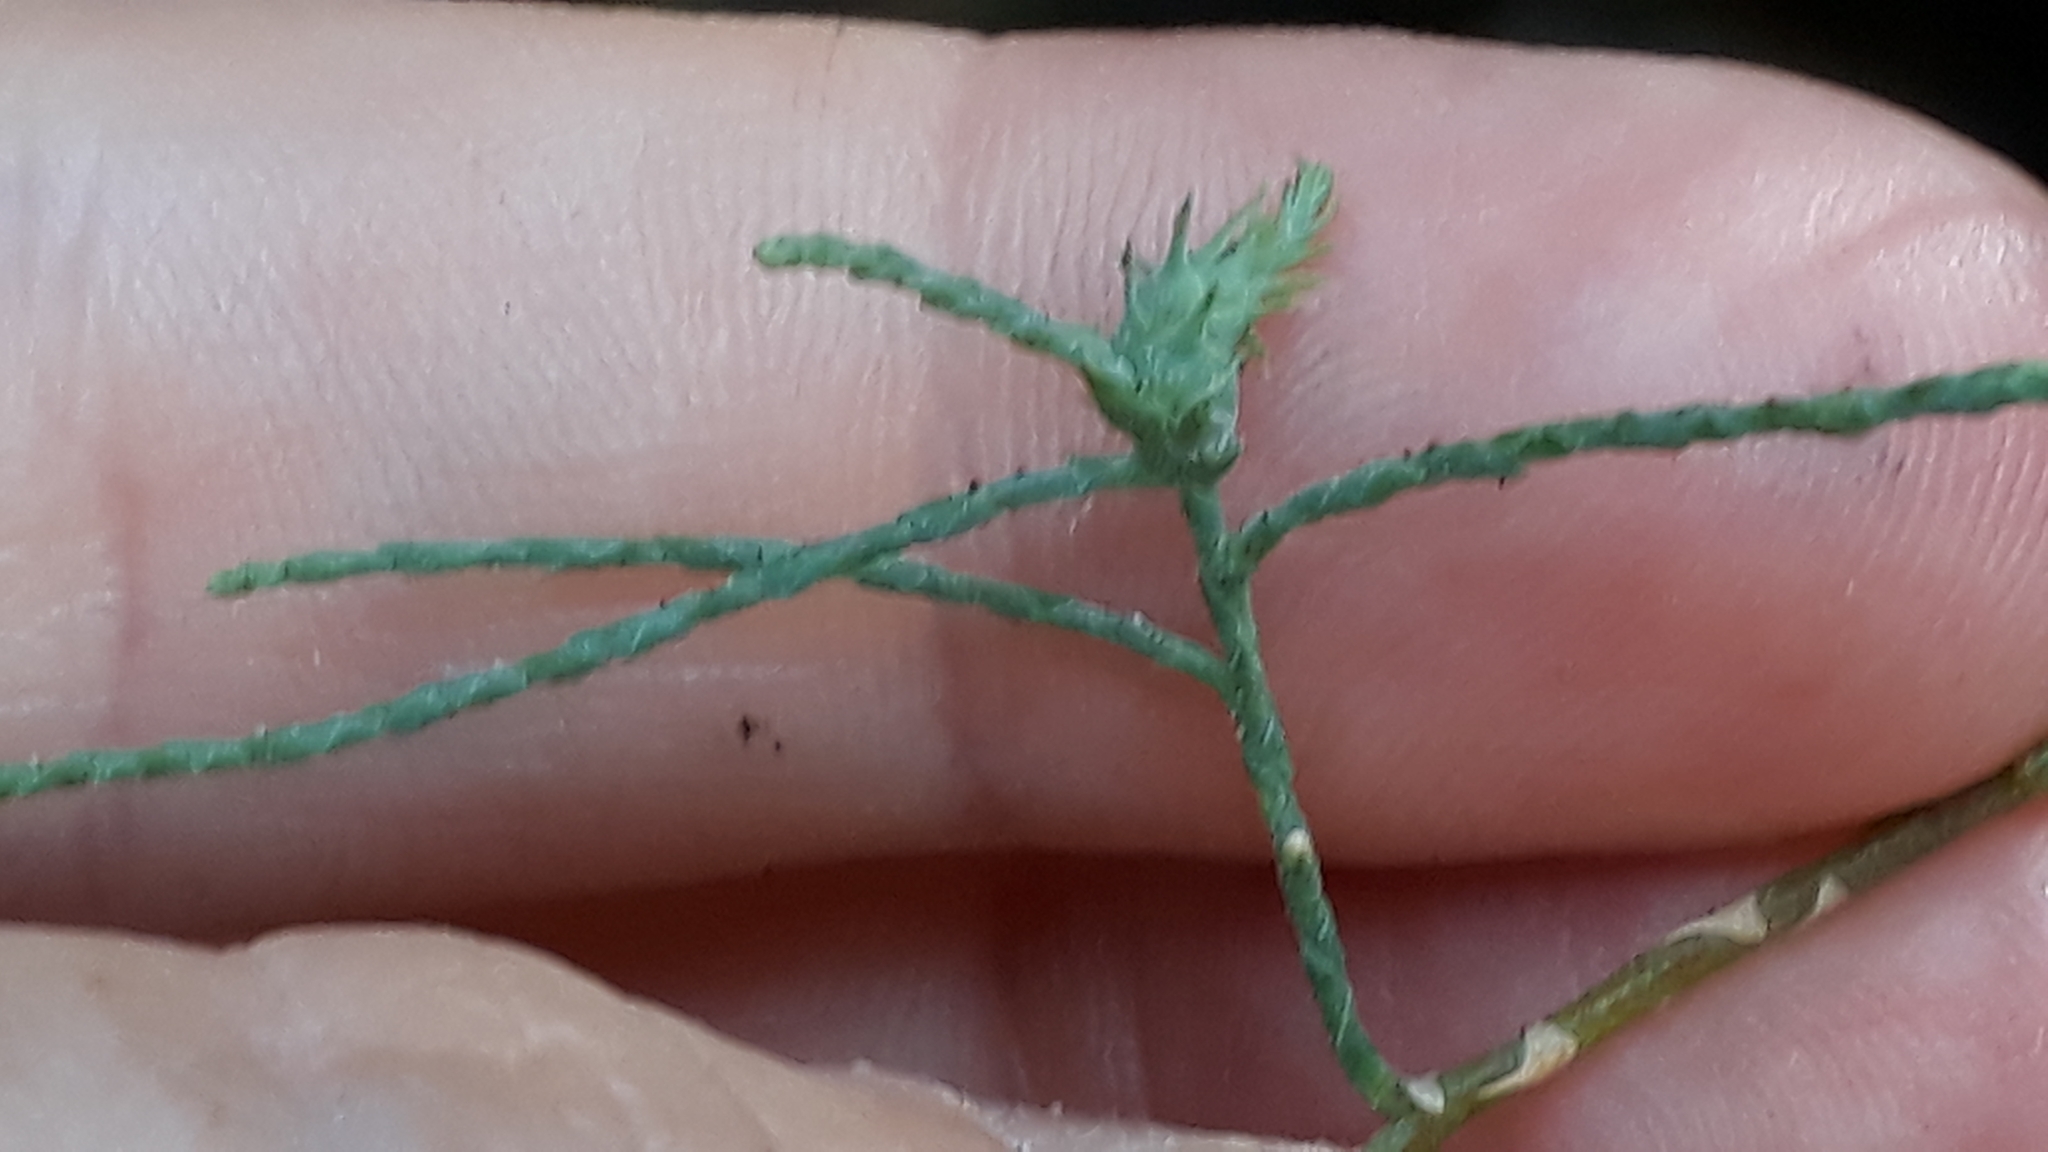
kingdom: Plantae
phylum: Tracheophyta
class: Magnoliopsida
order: Caryophyllales
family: Tamaricaceae
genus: Tamarix
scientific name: Tamarix canariensis
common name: Canary island tamarisk
